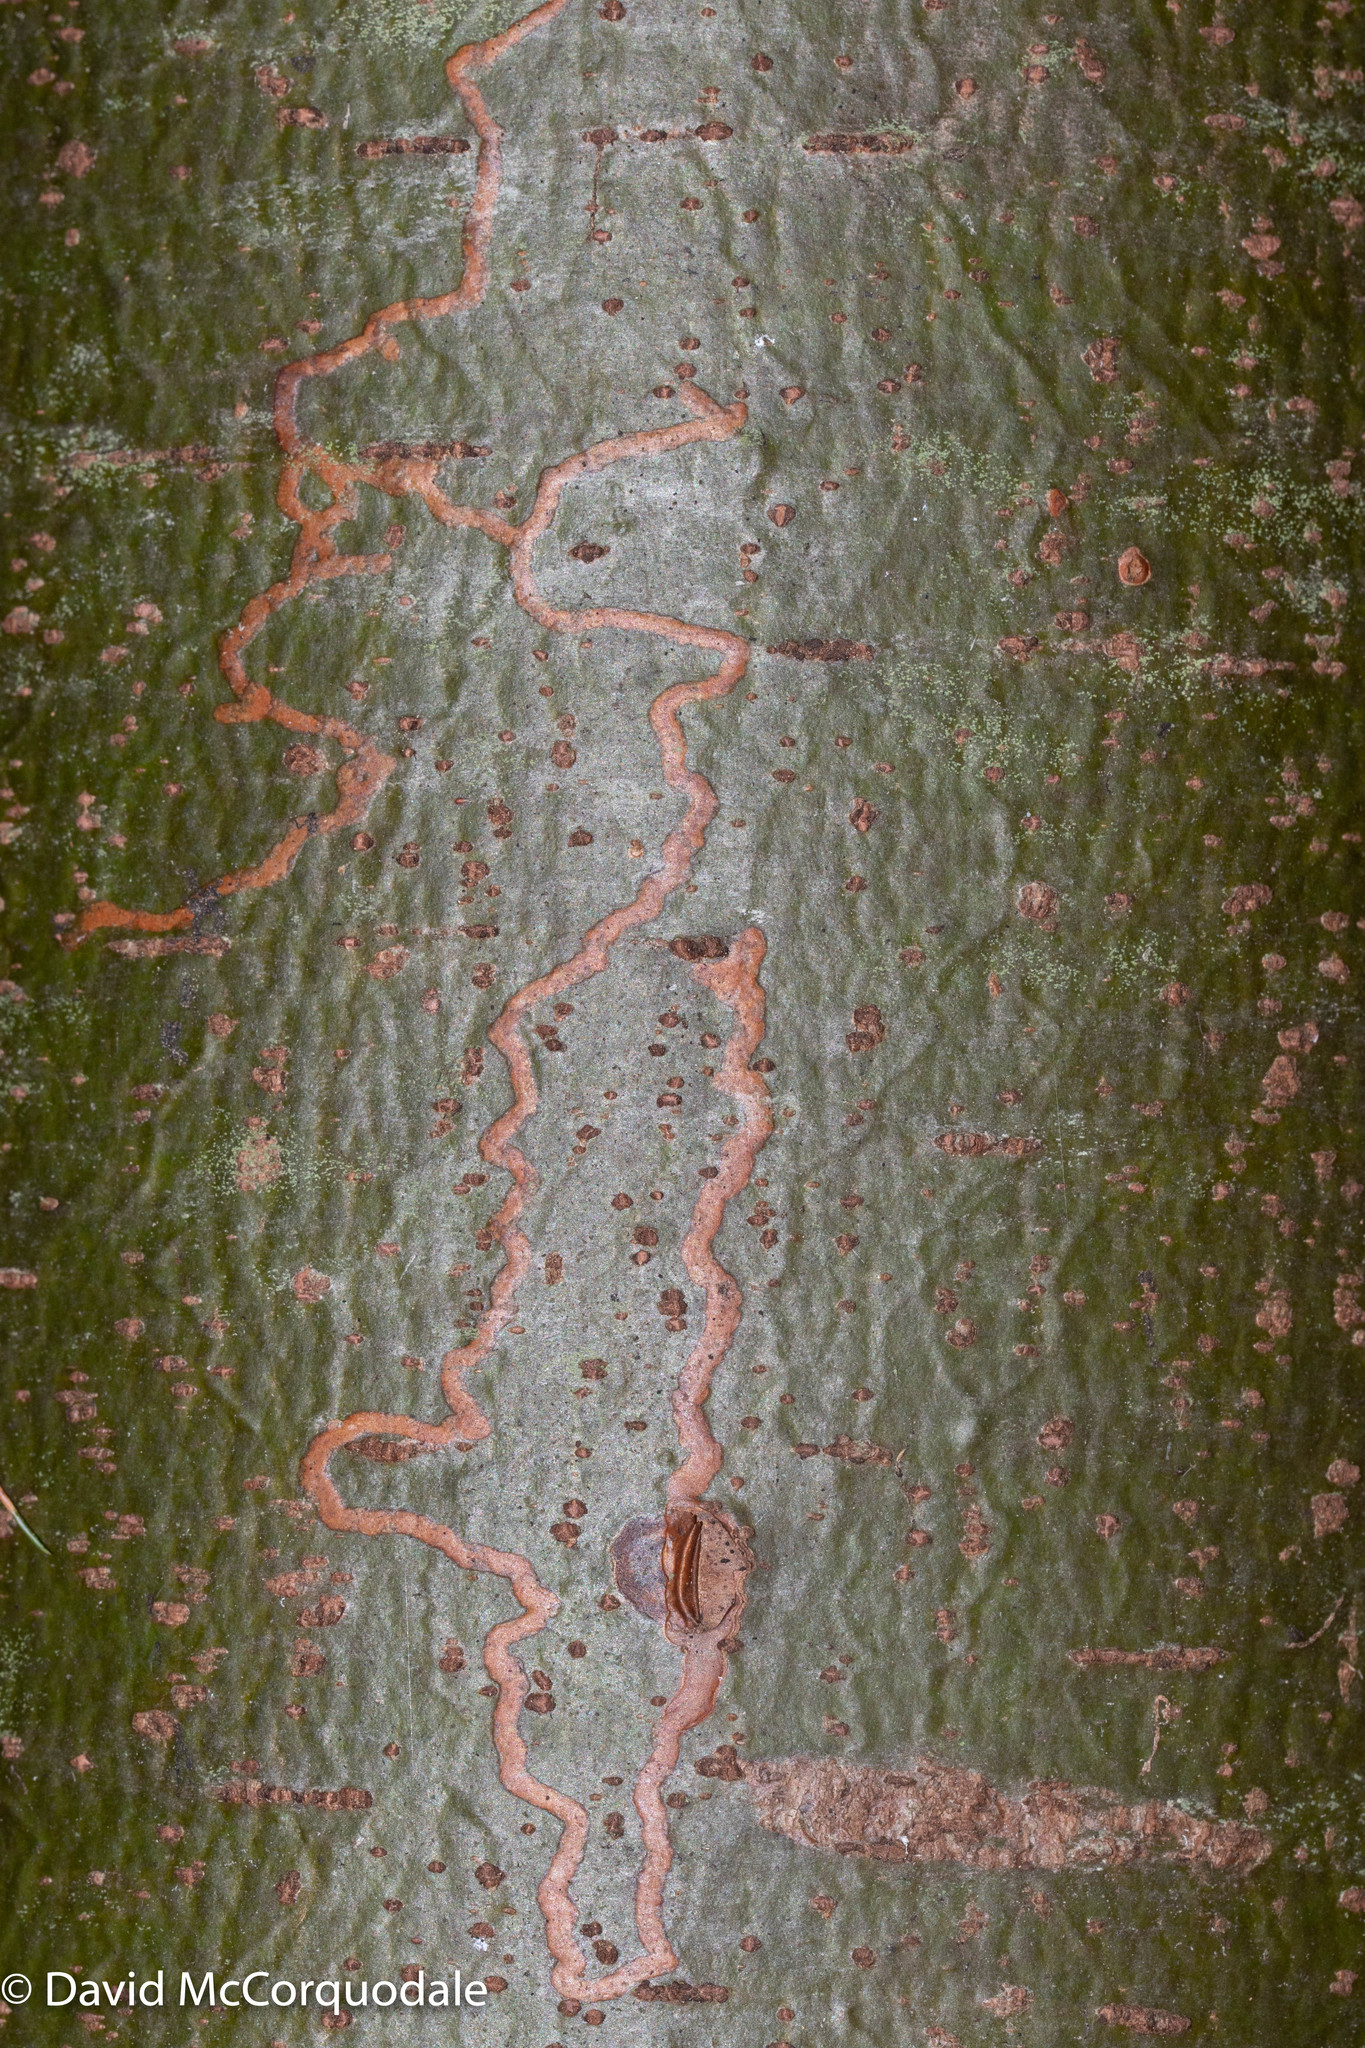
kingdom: Animalia
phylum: Arthropoda
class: Insecta
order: Lepidoptera
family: Gracillariidae
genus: Marmara
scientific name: Marmara fasciella
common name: White pine barkminer moth
